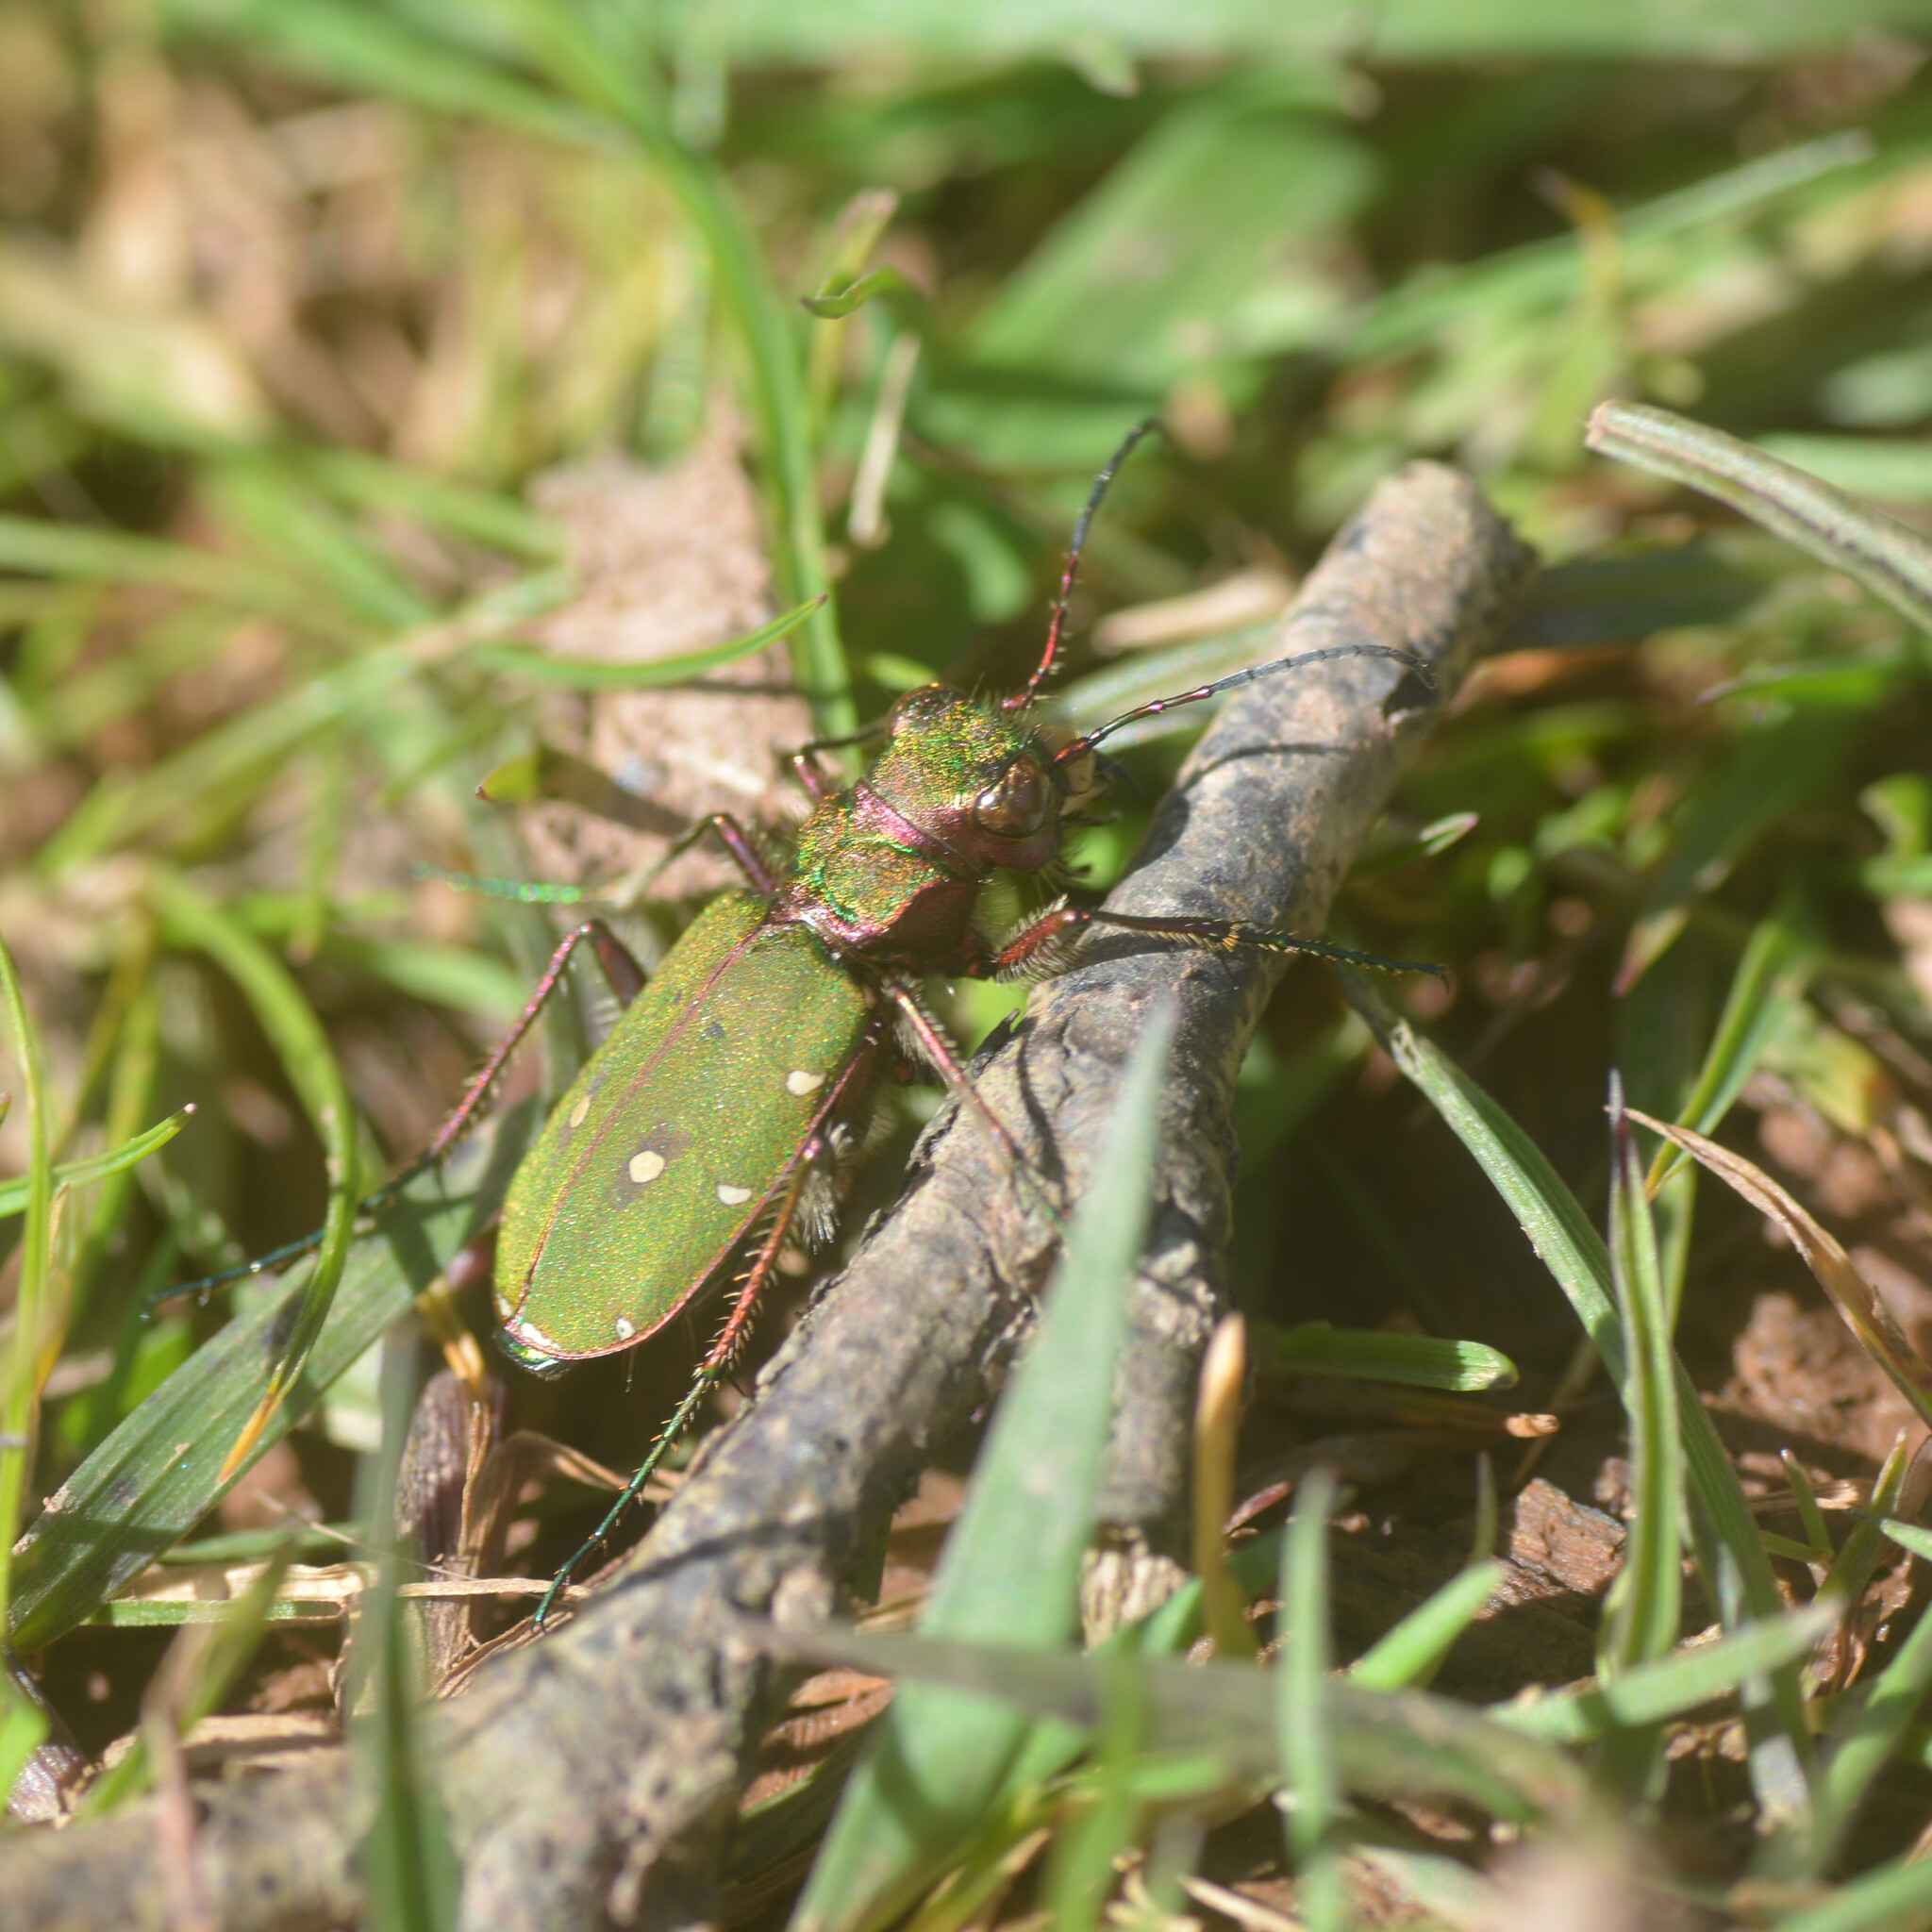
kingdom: Animalia
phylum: Arthropoda
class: Insecta
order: Coleoptera
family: Carabidae
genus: Cicindela
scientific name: Cicindela campestris
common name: Common tiger beetle
